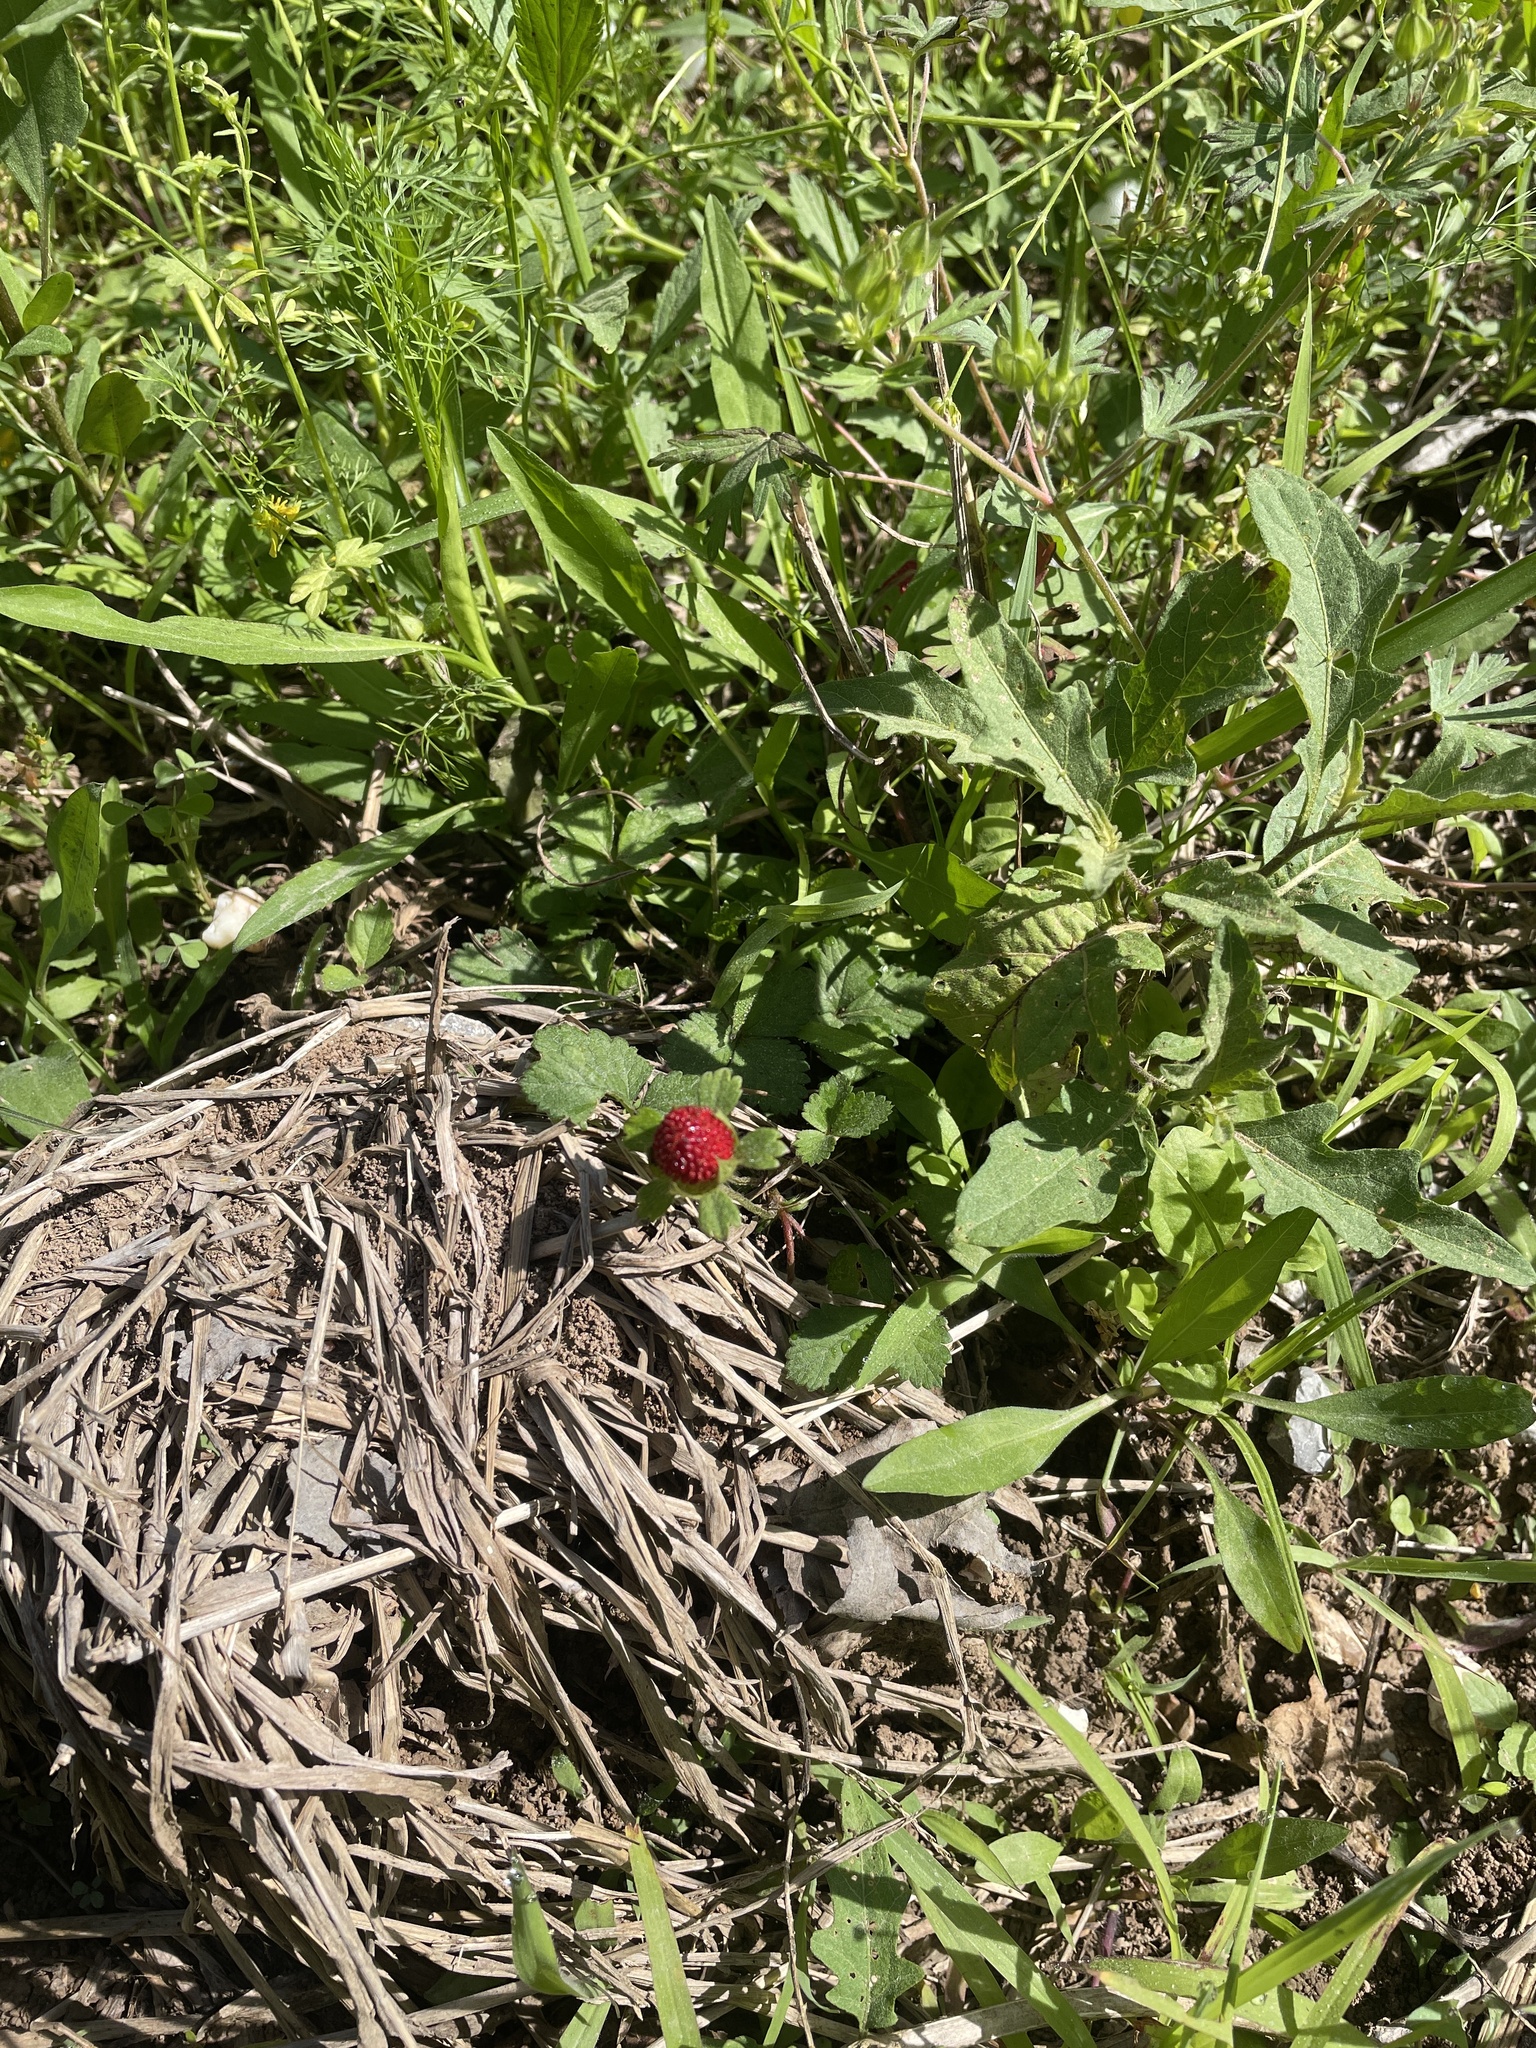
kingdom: Plantae
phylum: Tracheophyta
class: Magnoliopsida
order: Rosales
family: Rosaceae
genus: Potentilla
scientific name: Potentilla indica
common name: Yellow-flowered strawberry
